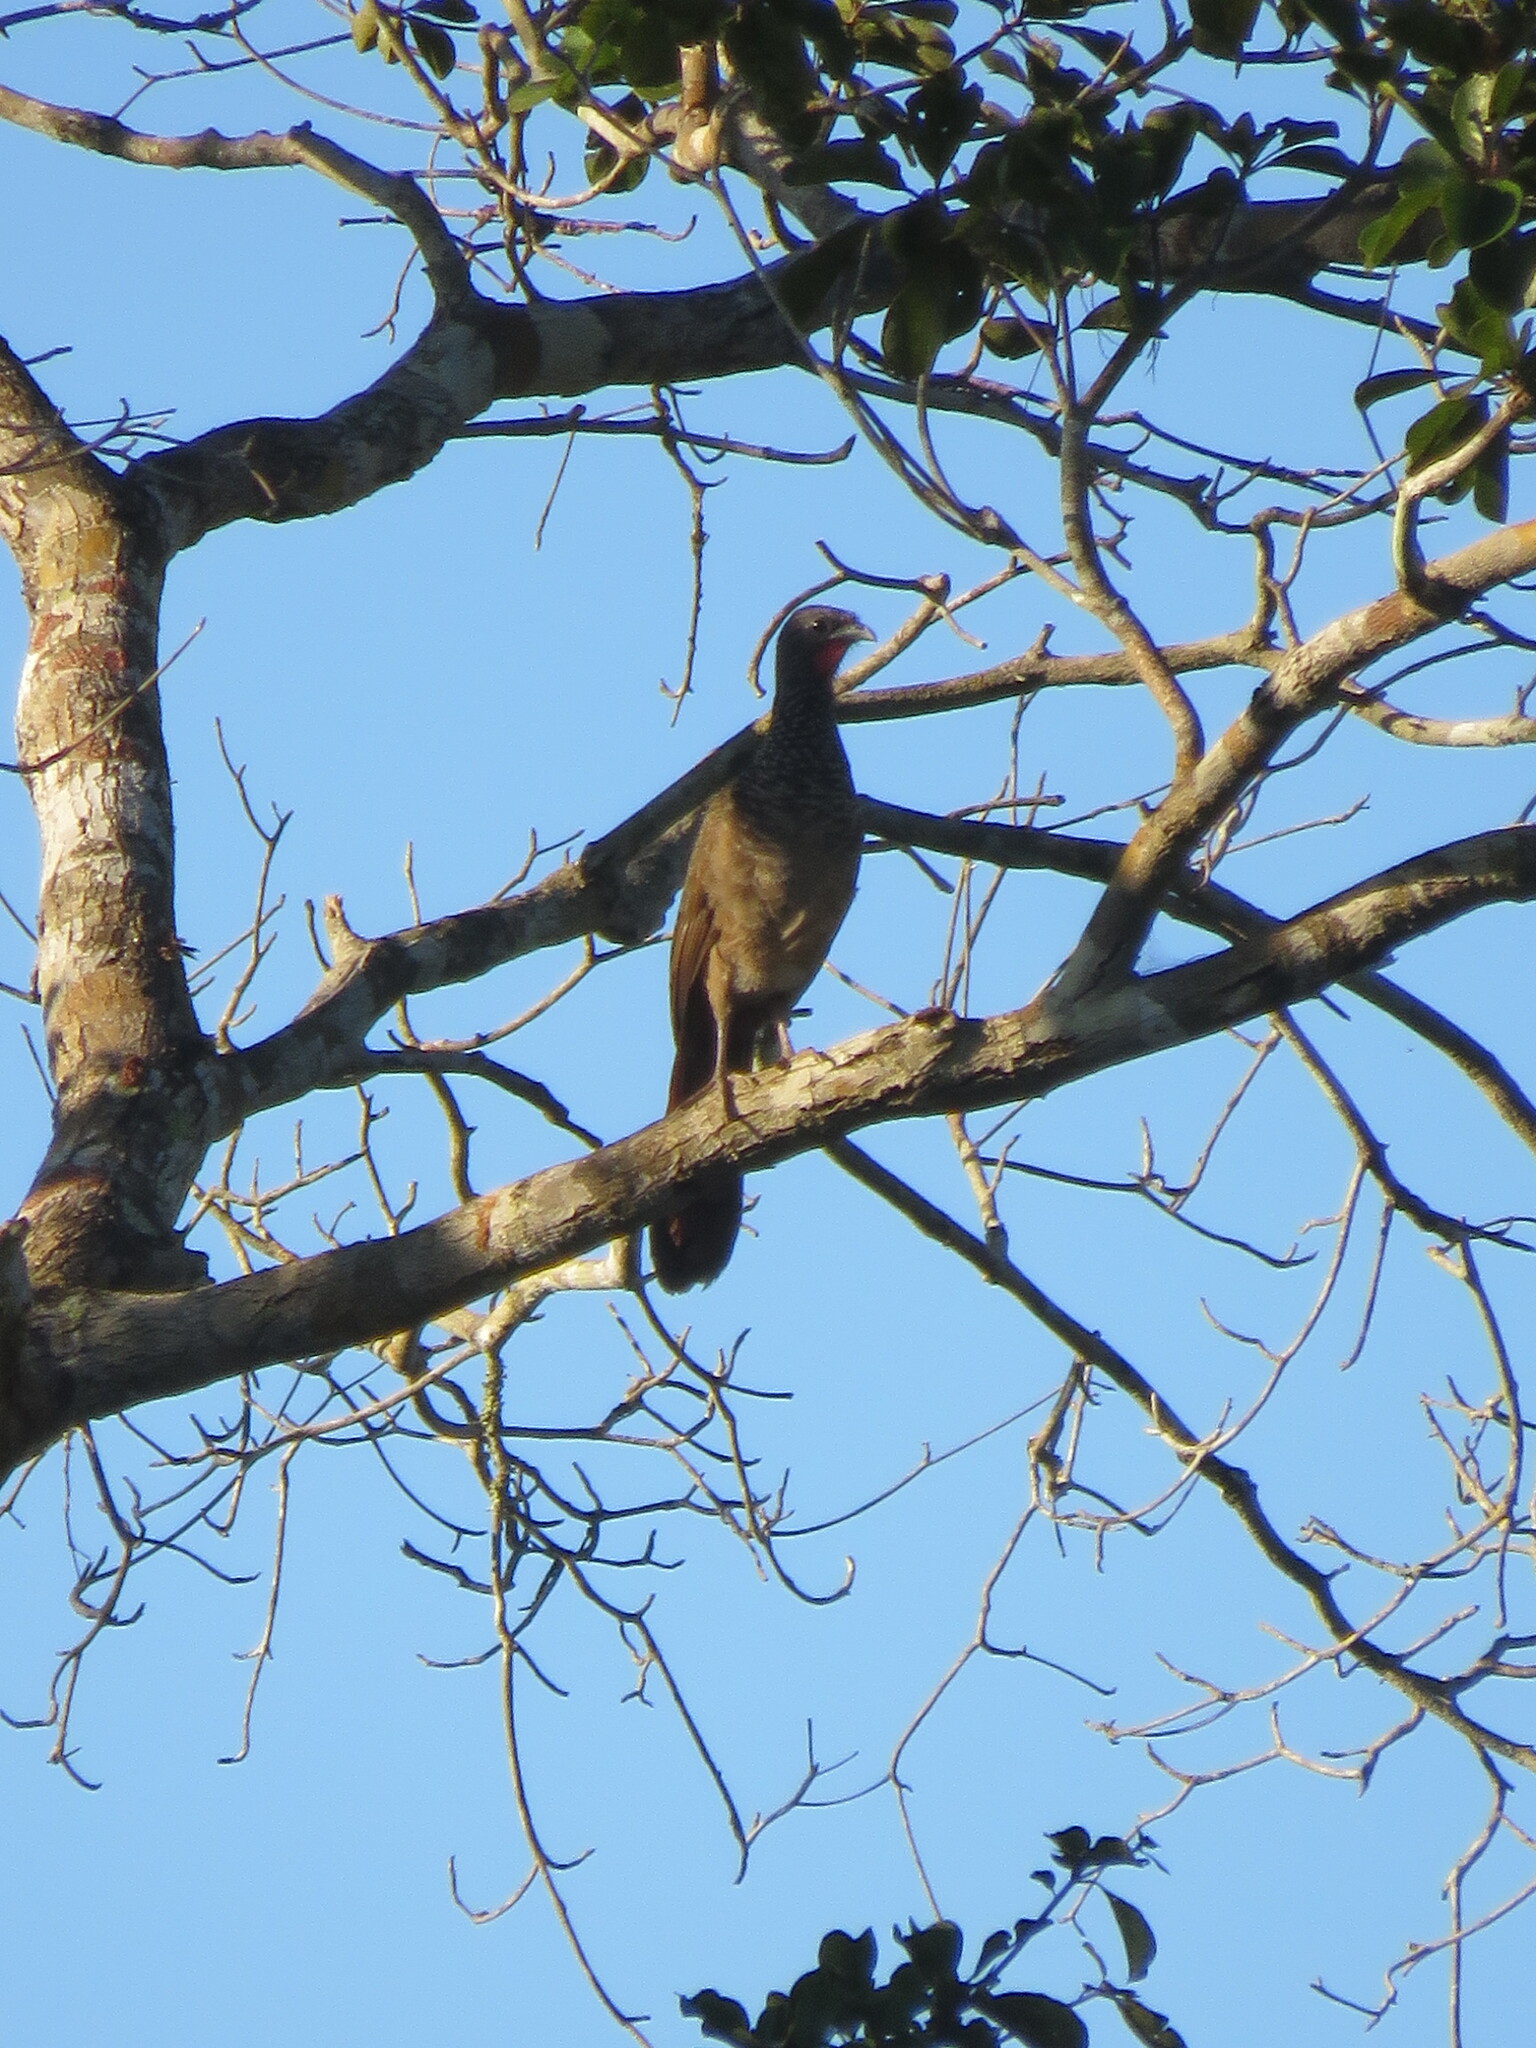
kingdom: Animalia
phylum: Chordata
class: Aves
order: Galliformes
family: Cracidae
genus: Ortalis
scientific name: Ortalis guttata
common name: Speckled chachalaca
